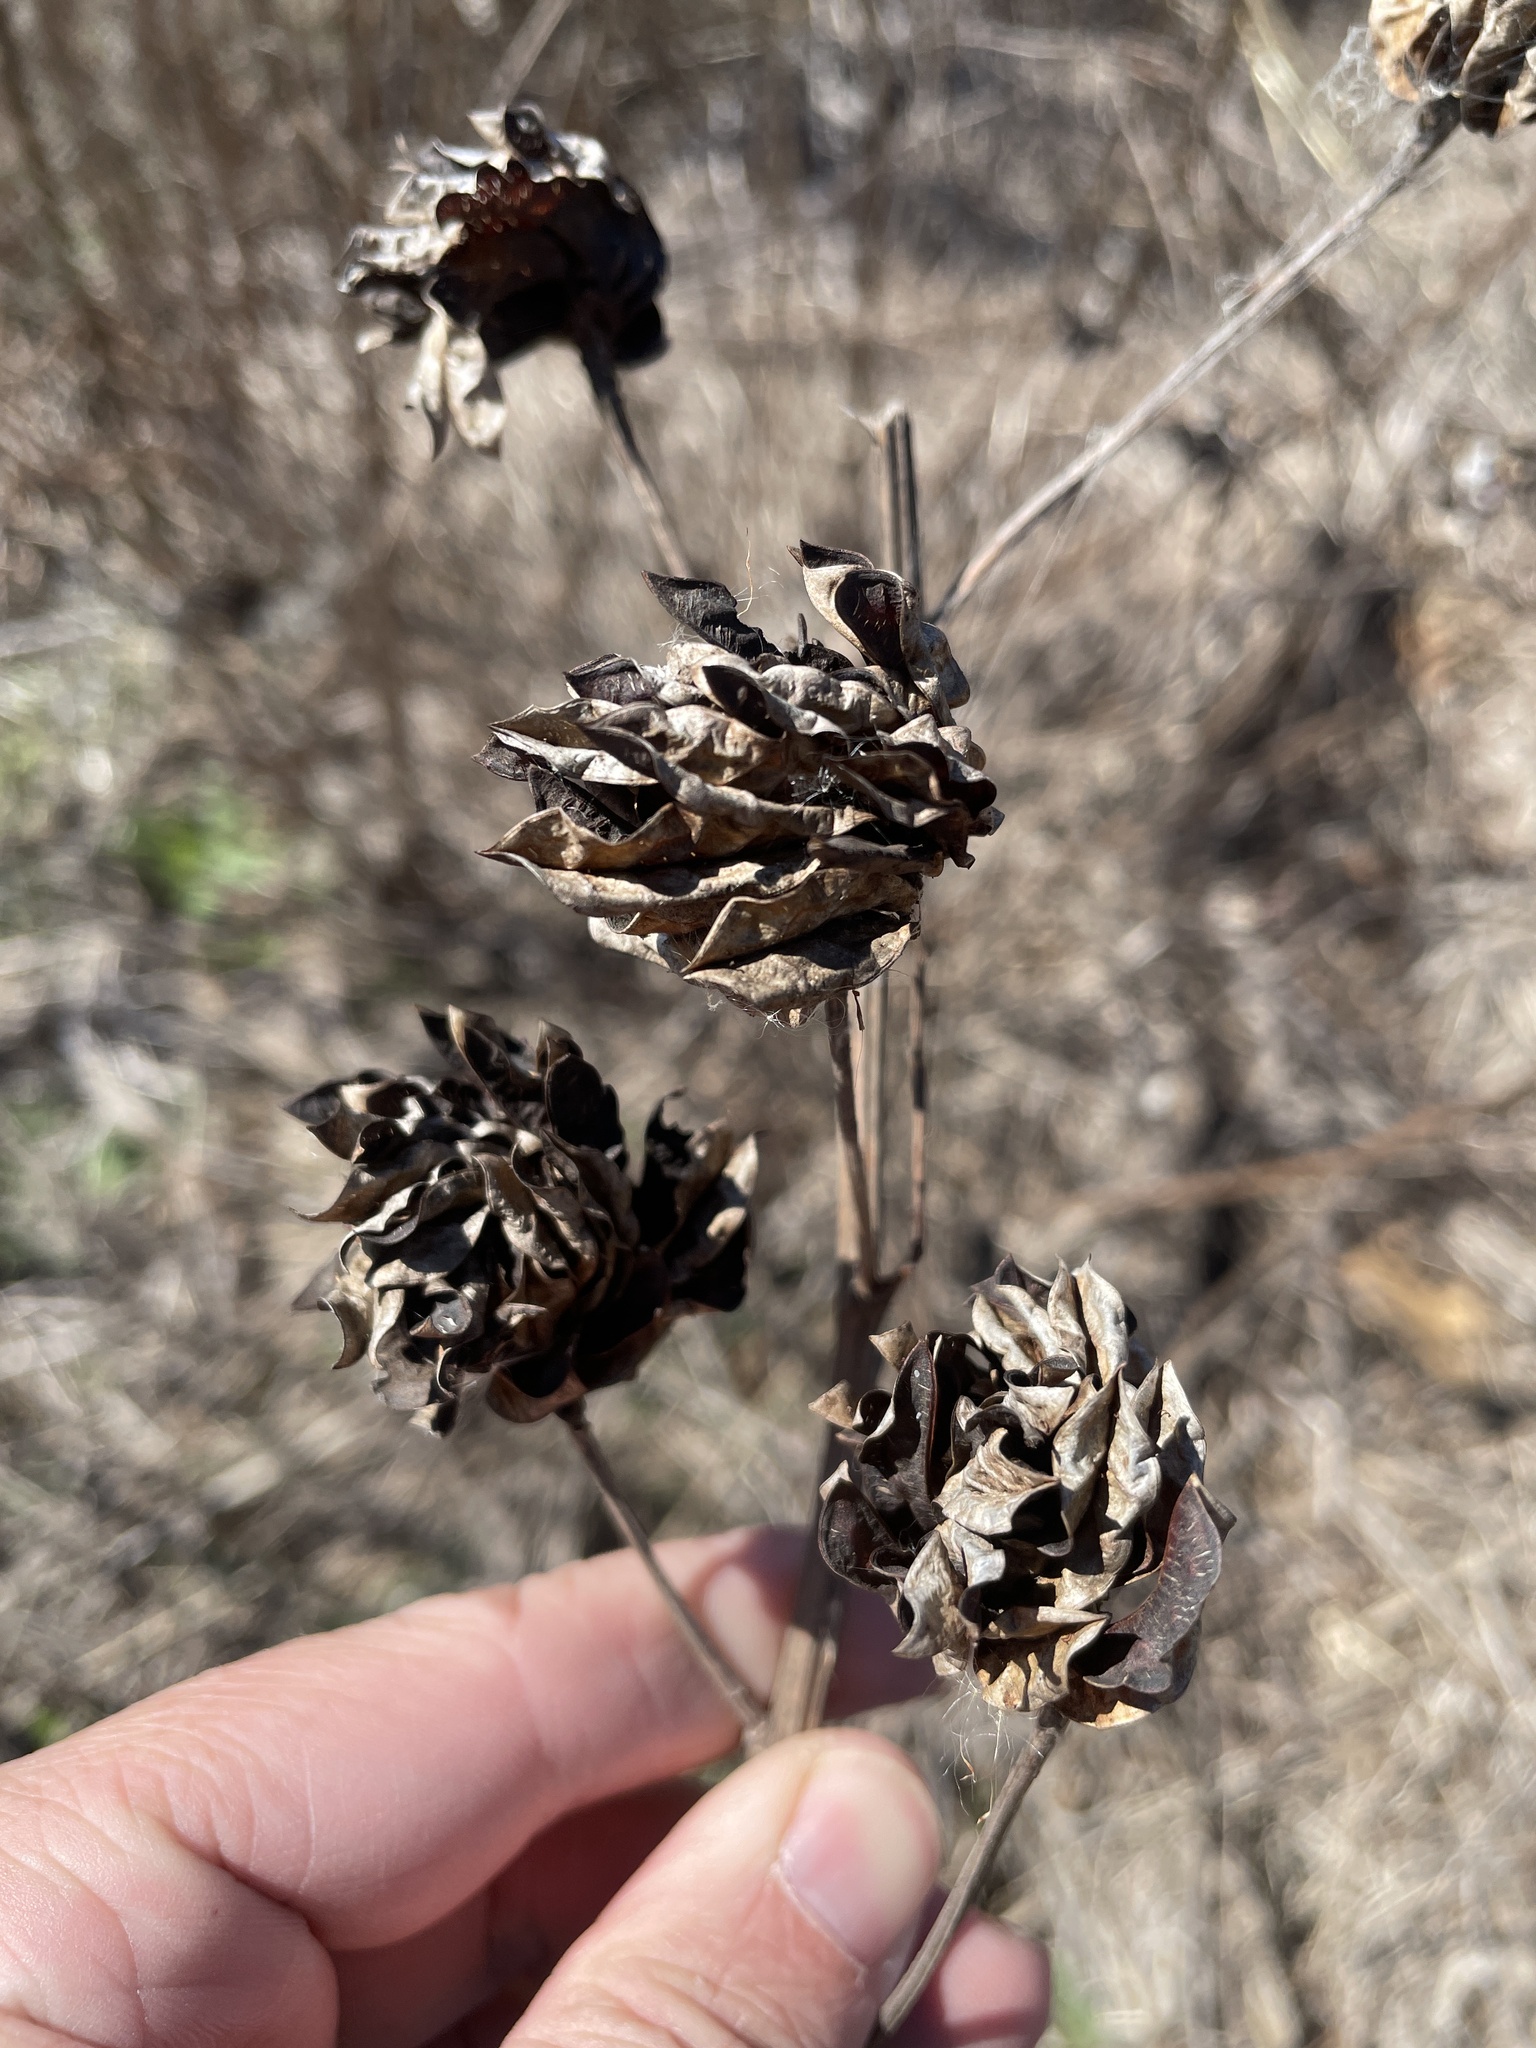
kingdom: Plantae
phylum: Tracheophyta
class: Magnoliopsida
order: Fabales
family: Fabaceae
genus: Desmanthus
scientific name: Desmanthus illinoensis
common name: Illinois bundle-flower
